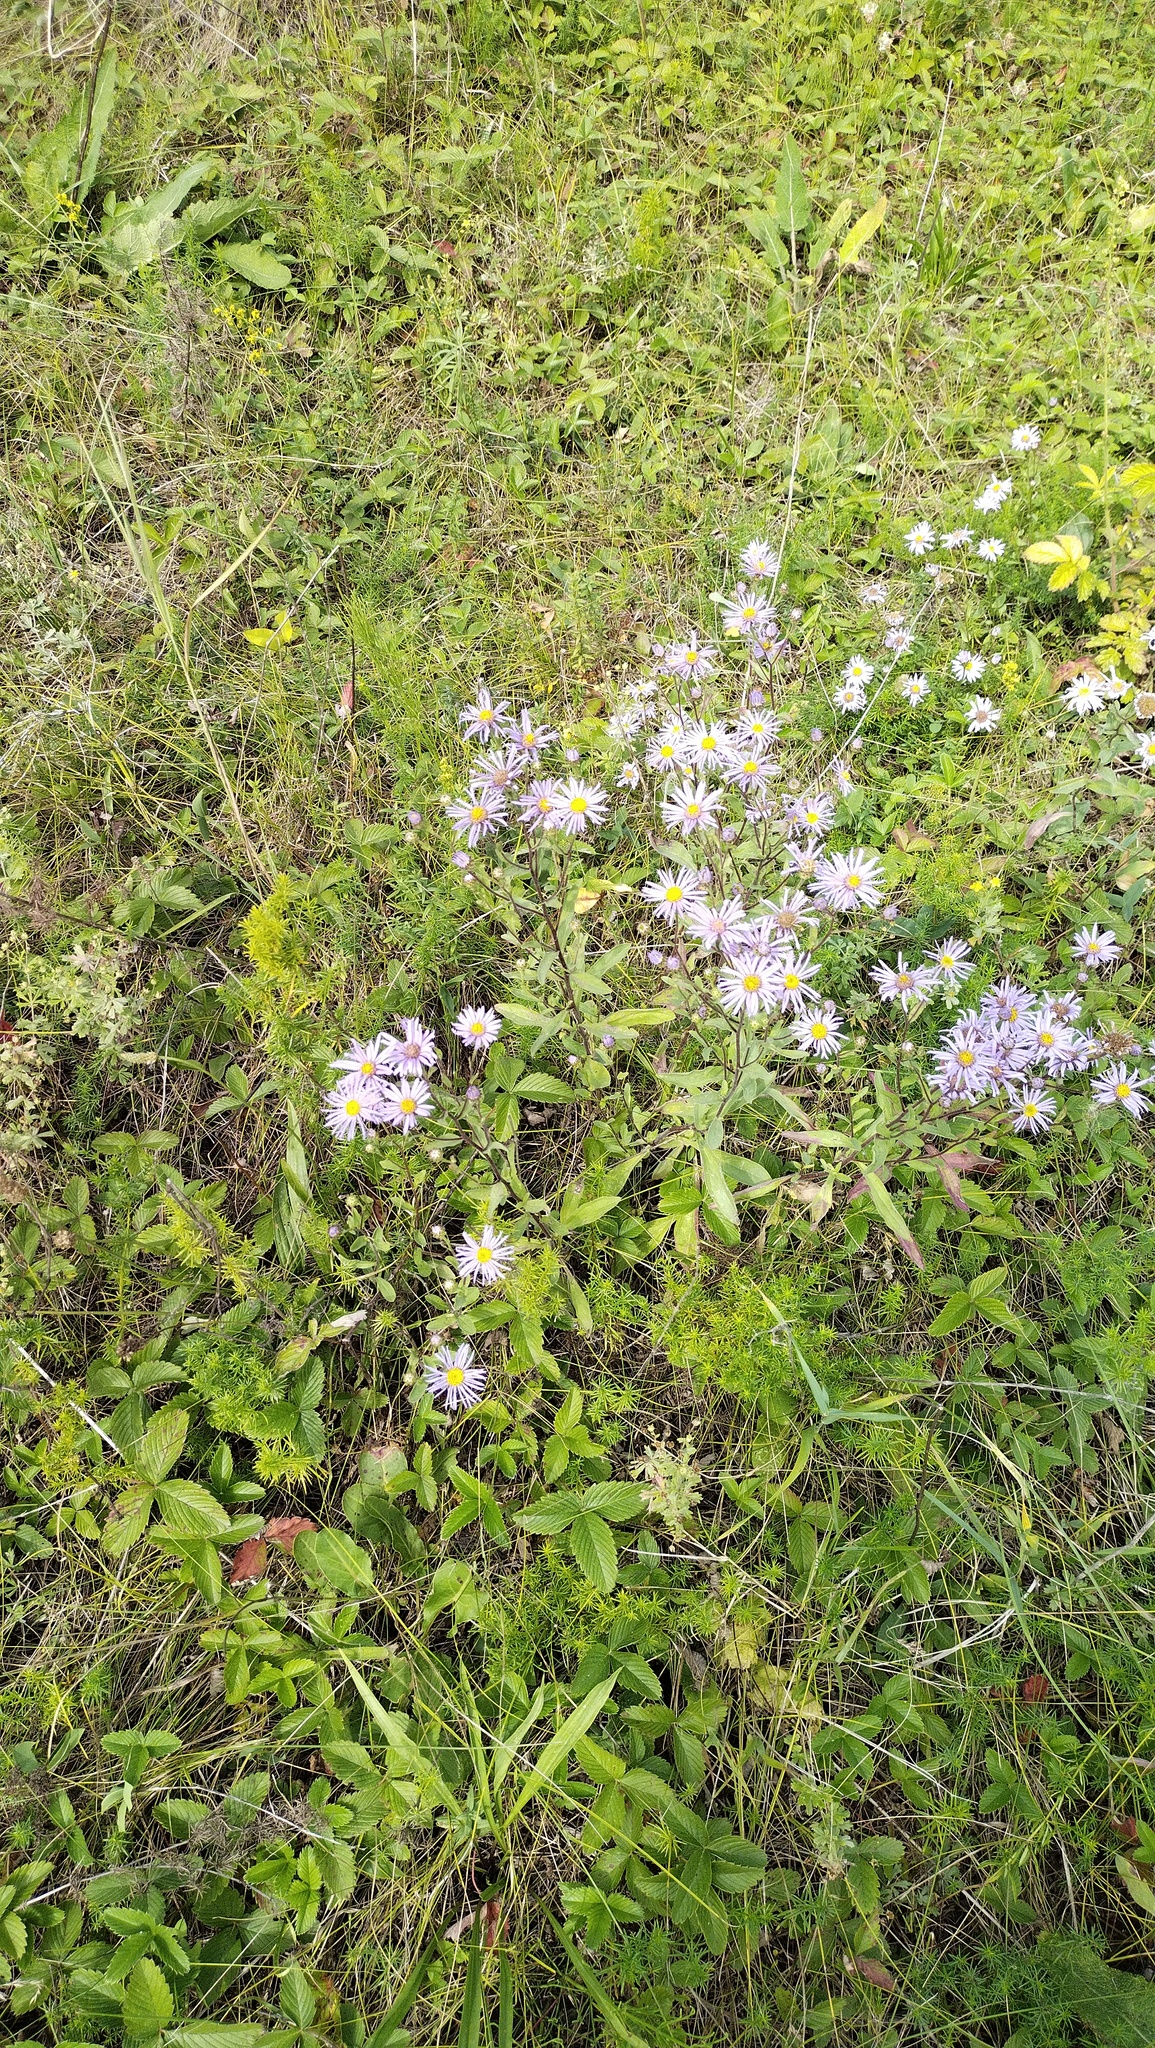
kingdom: Plantae
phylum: Tracheophyta
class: Magnoliopsida
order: Asterales
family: Asteraceae
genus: Aster
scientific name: Aster amellus
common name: European michaelmas daisy
